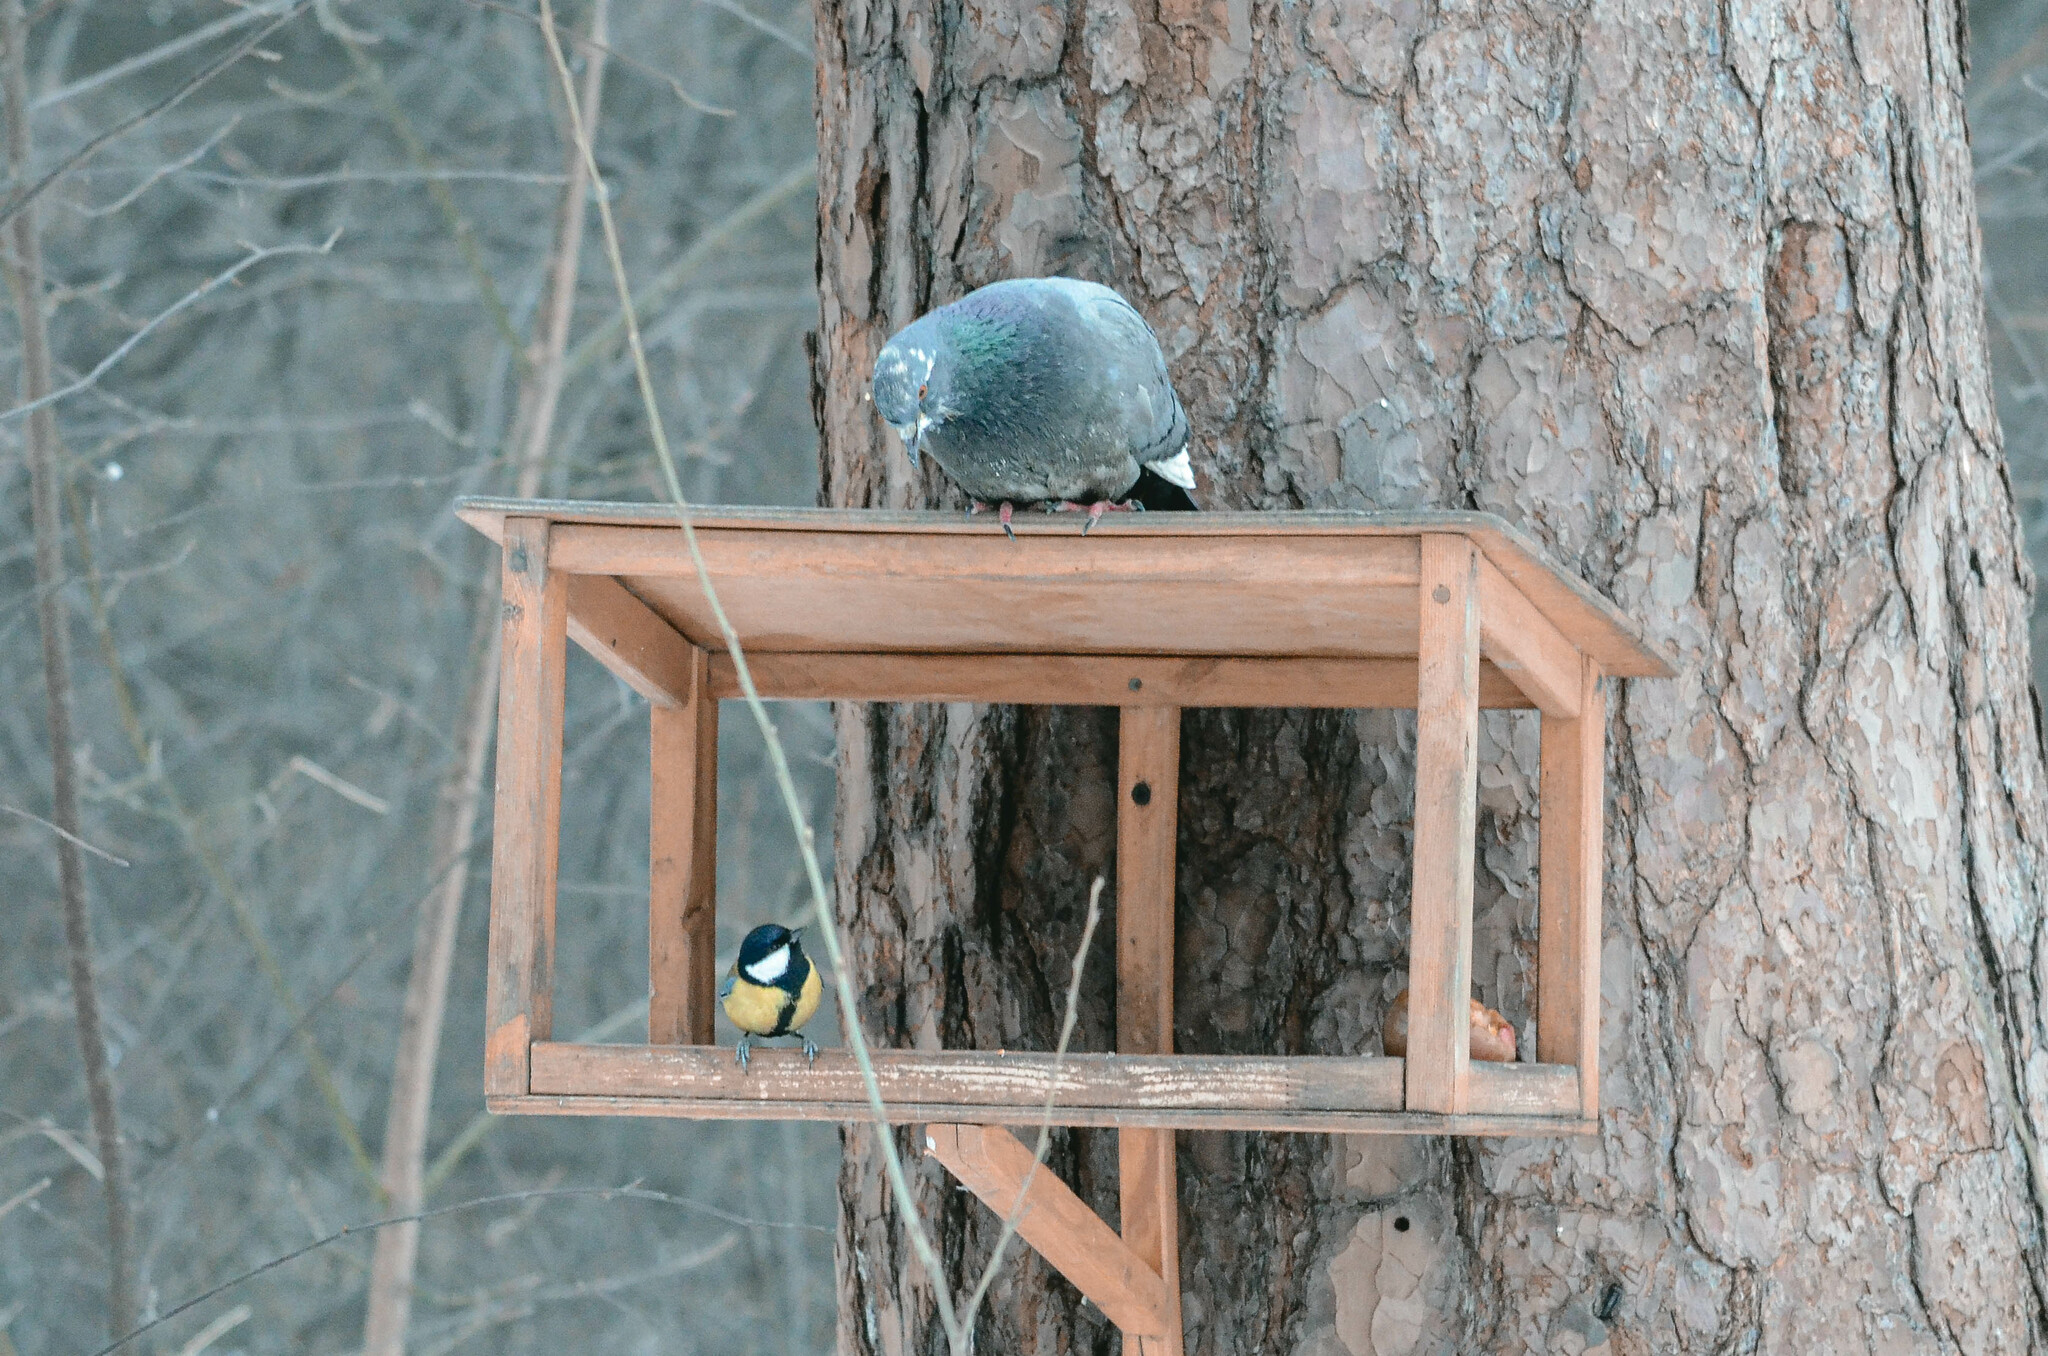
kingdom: Animalia
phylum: Chordata
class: Aves
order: Columbiformes
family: Columbidae
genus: Columba
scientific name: Columba livia
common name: Rock pigeon
